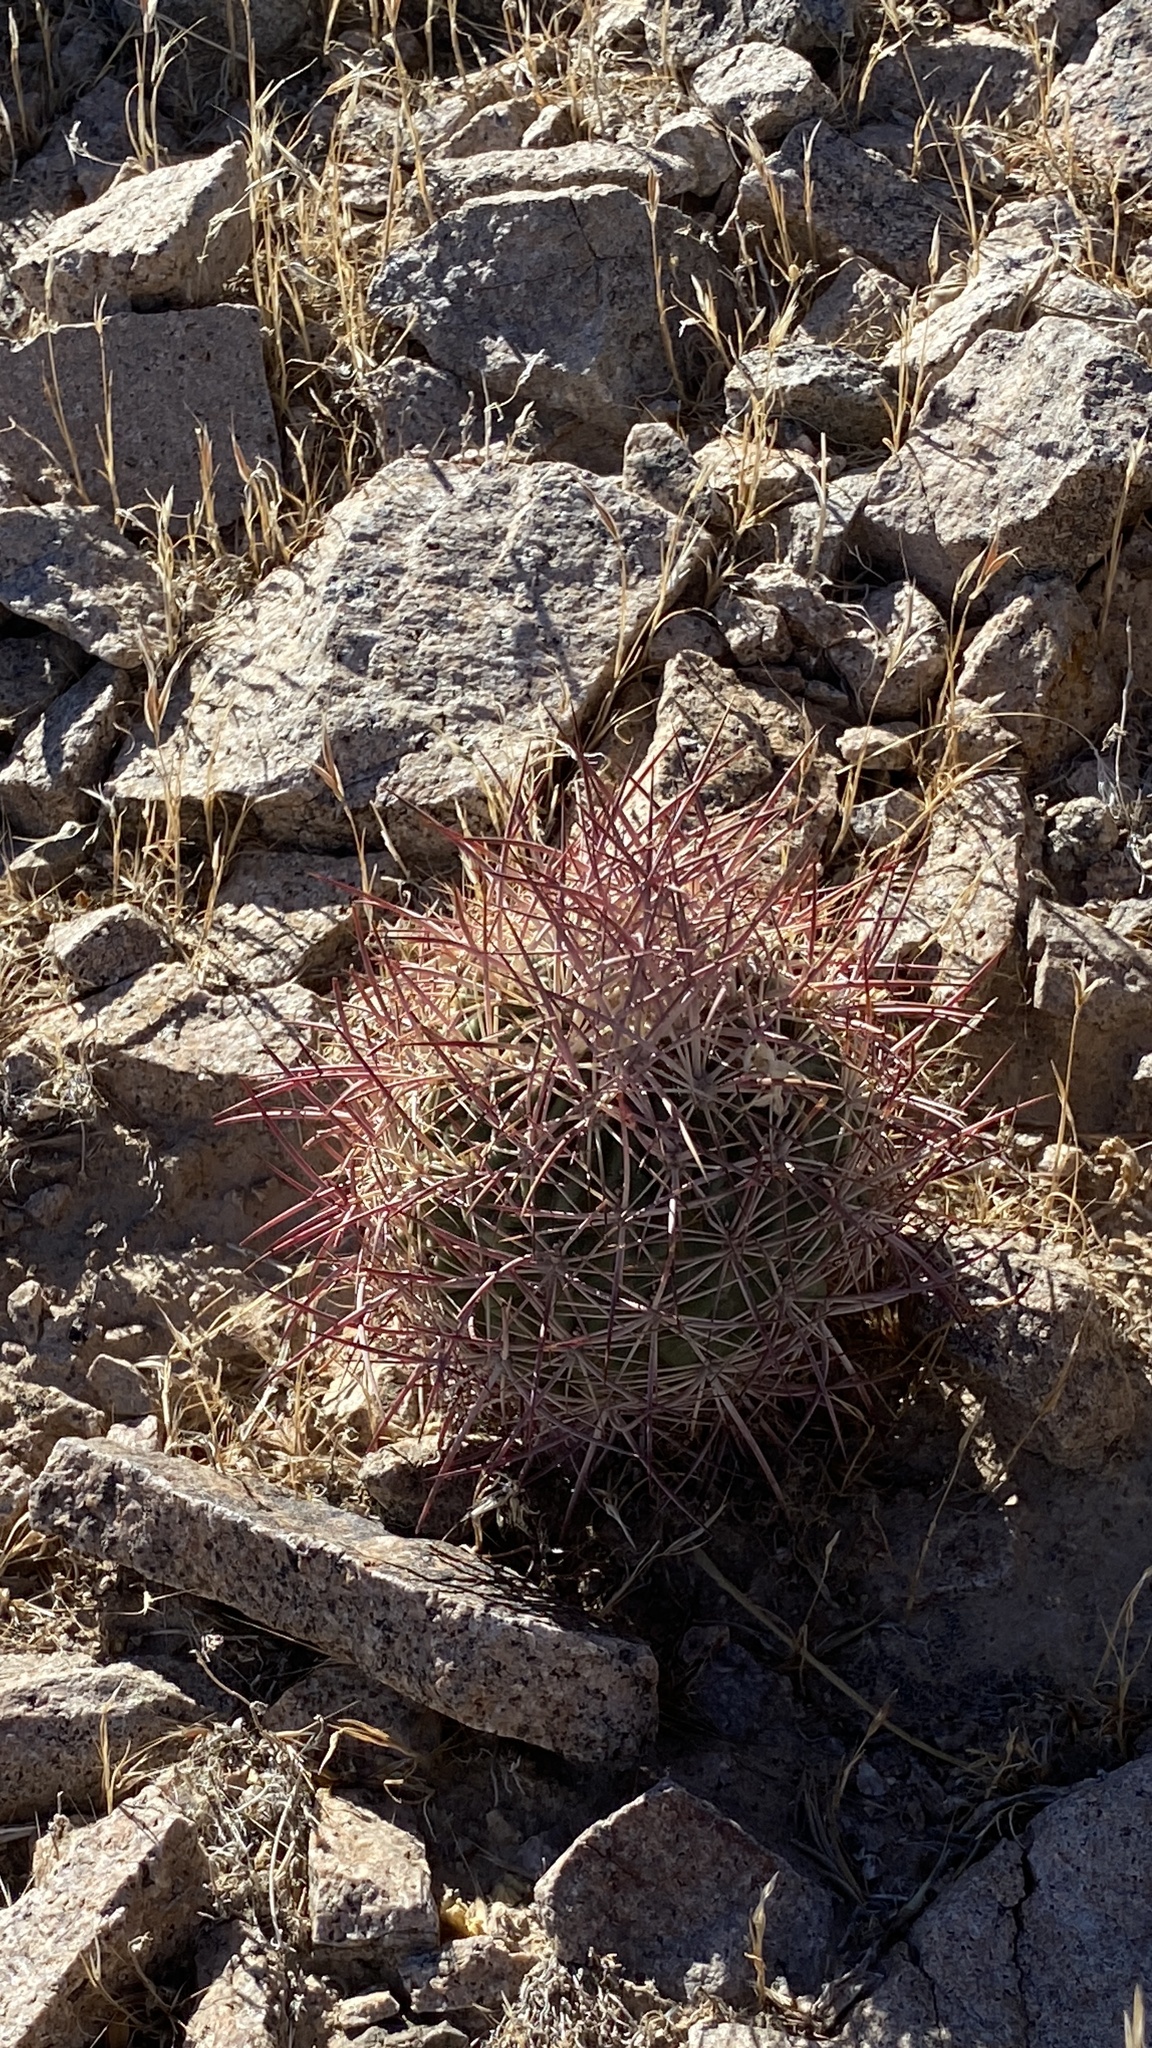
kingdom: Plantae
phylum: Tracheophyta
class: Magnoliopsida
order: Caryophyllales
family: Cactaceae
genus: Sclerocactus
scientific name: Sclerocactus johnsonii
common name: Eight-spine fishhook cactus
